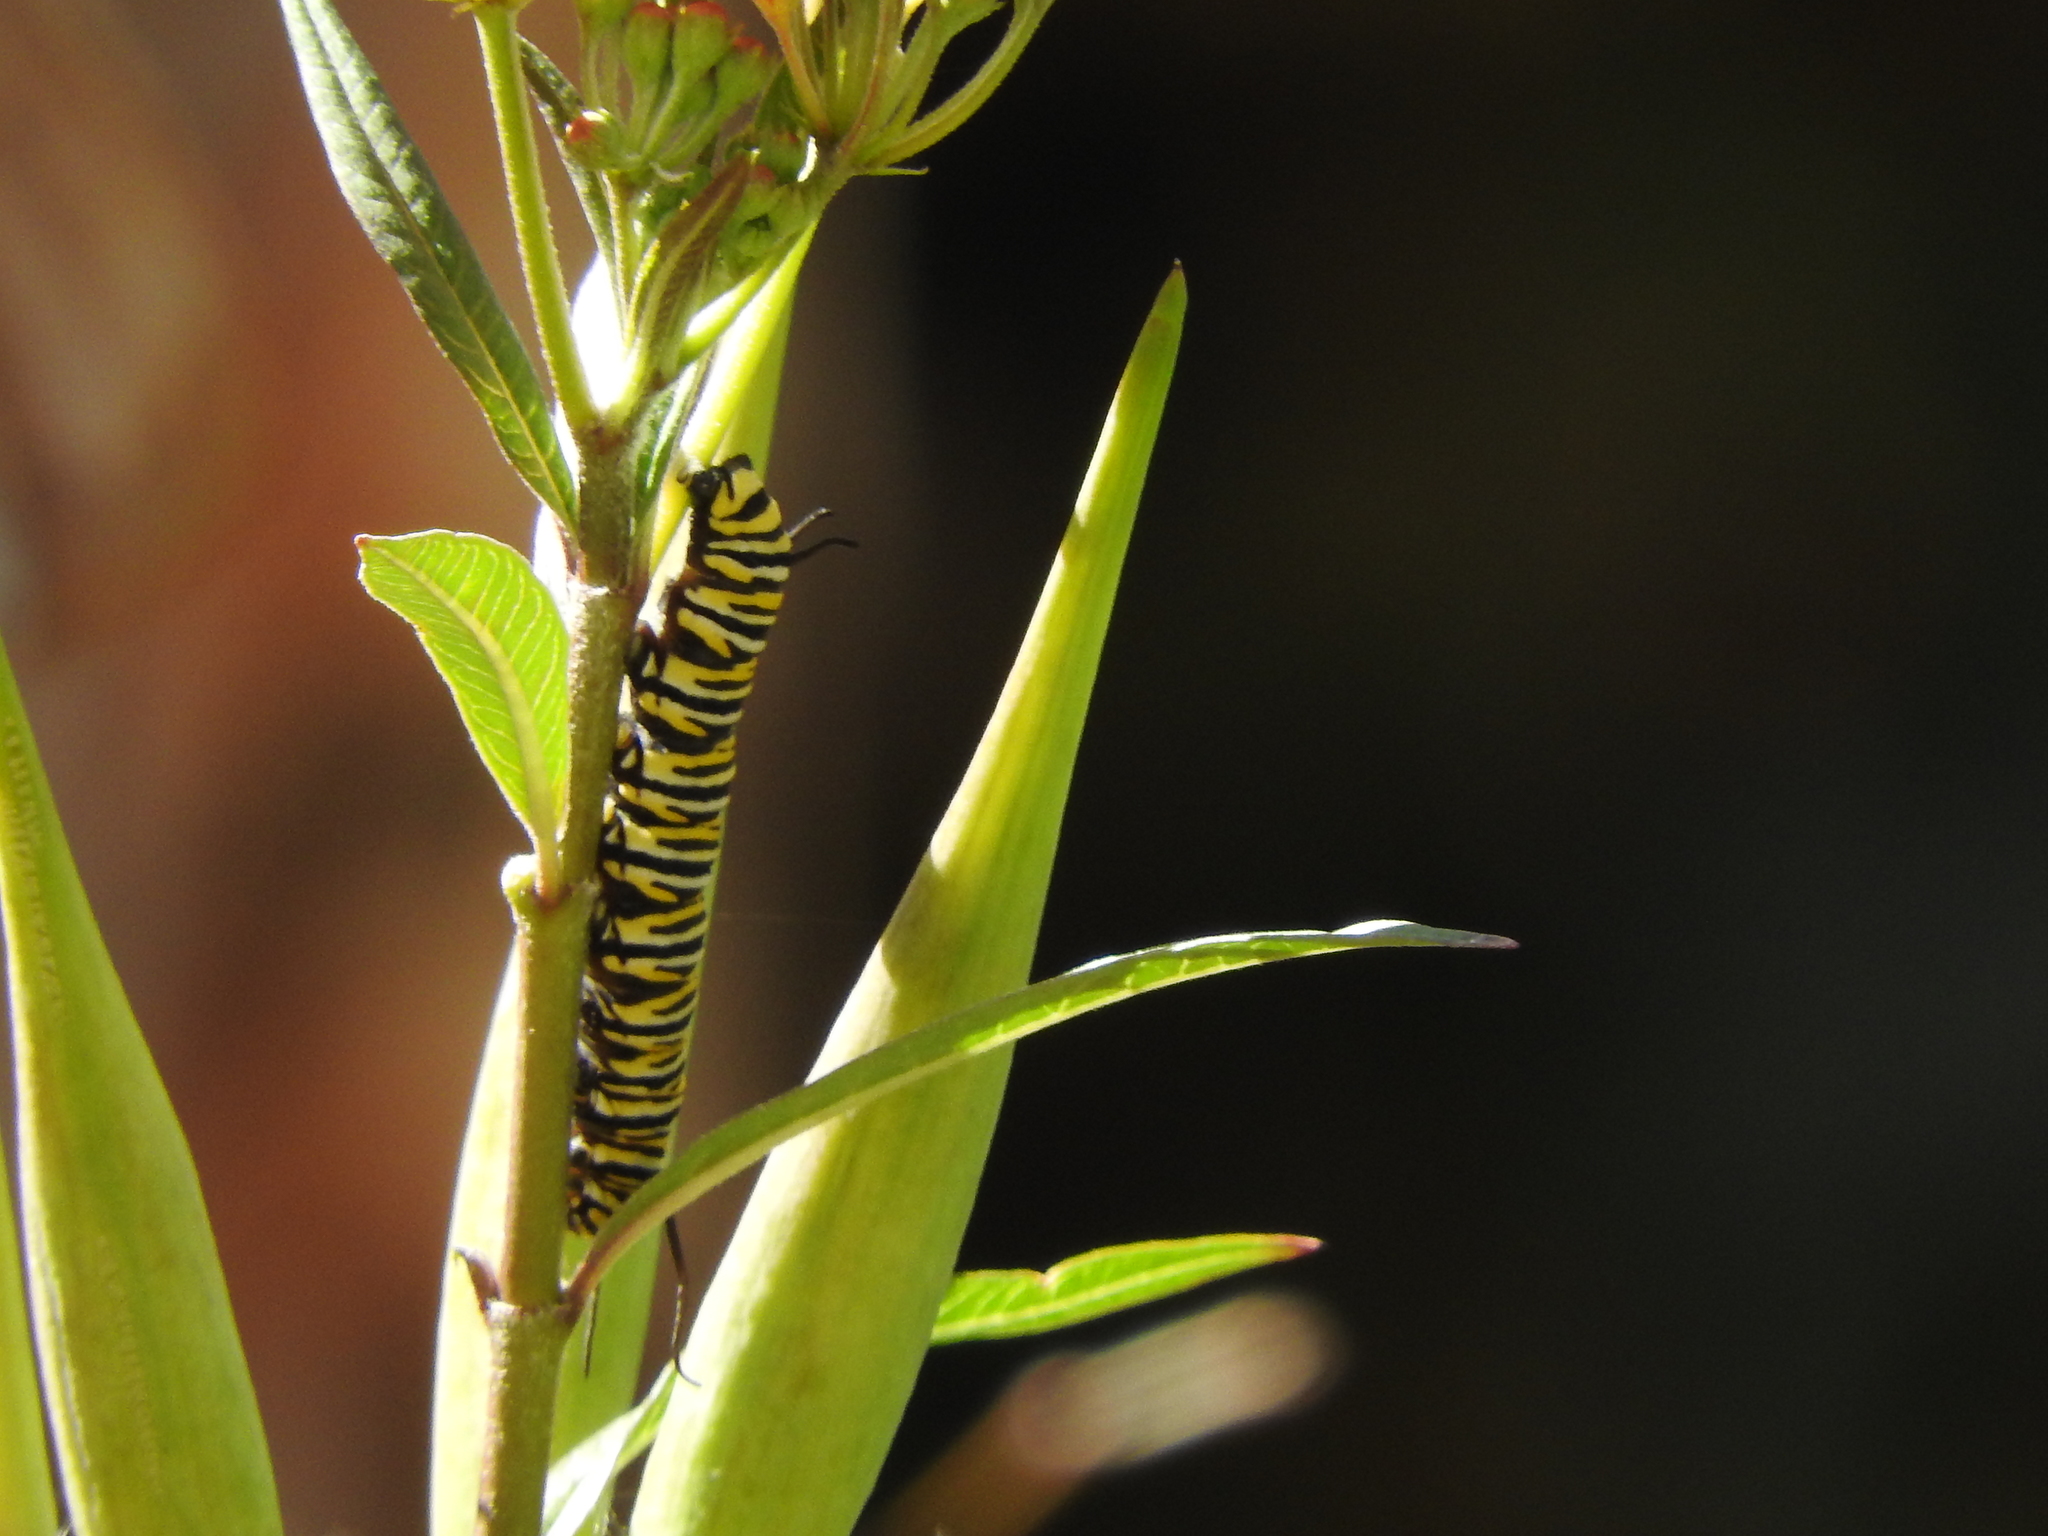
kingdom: Animalia
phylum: Arthropoda
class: Insecta
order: Lepidoptera
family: Nymphalidae
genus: Danaus
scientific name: Danaus plexippus
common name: Monarch
